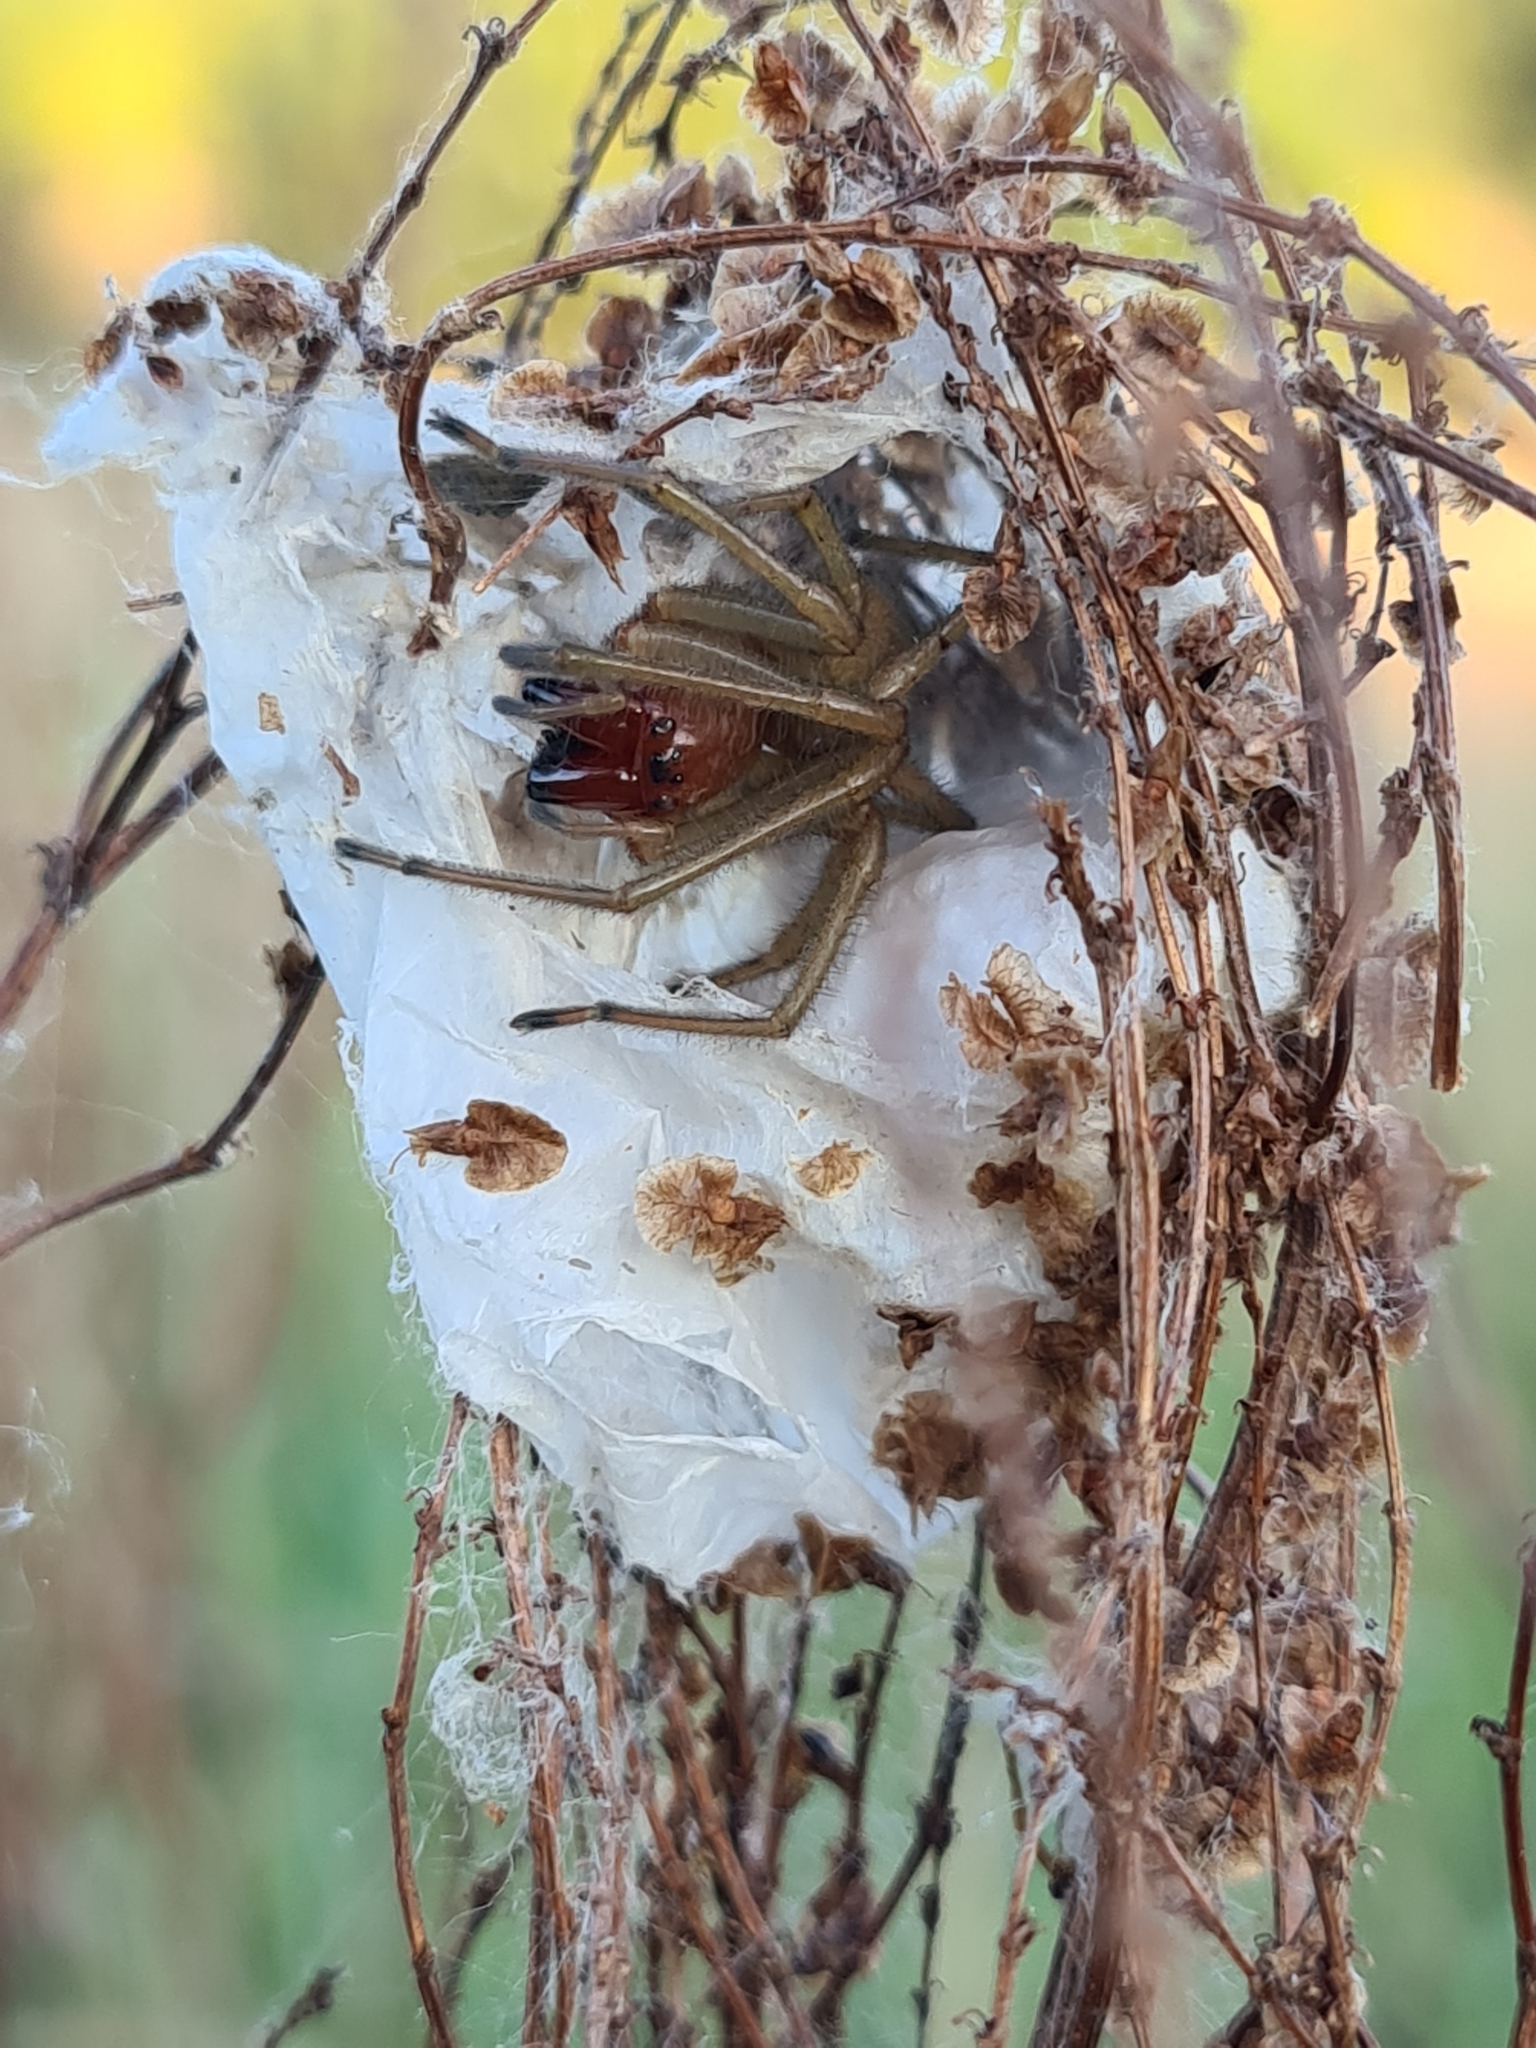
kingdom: Animalia
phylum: Arthropoda
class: Arachnida
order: Araneae
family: Cheiracanthiidae
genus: Cheiracanthium
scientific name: Cheiracanthium punctorium
